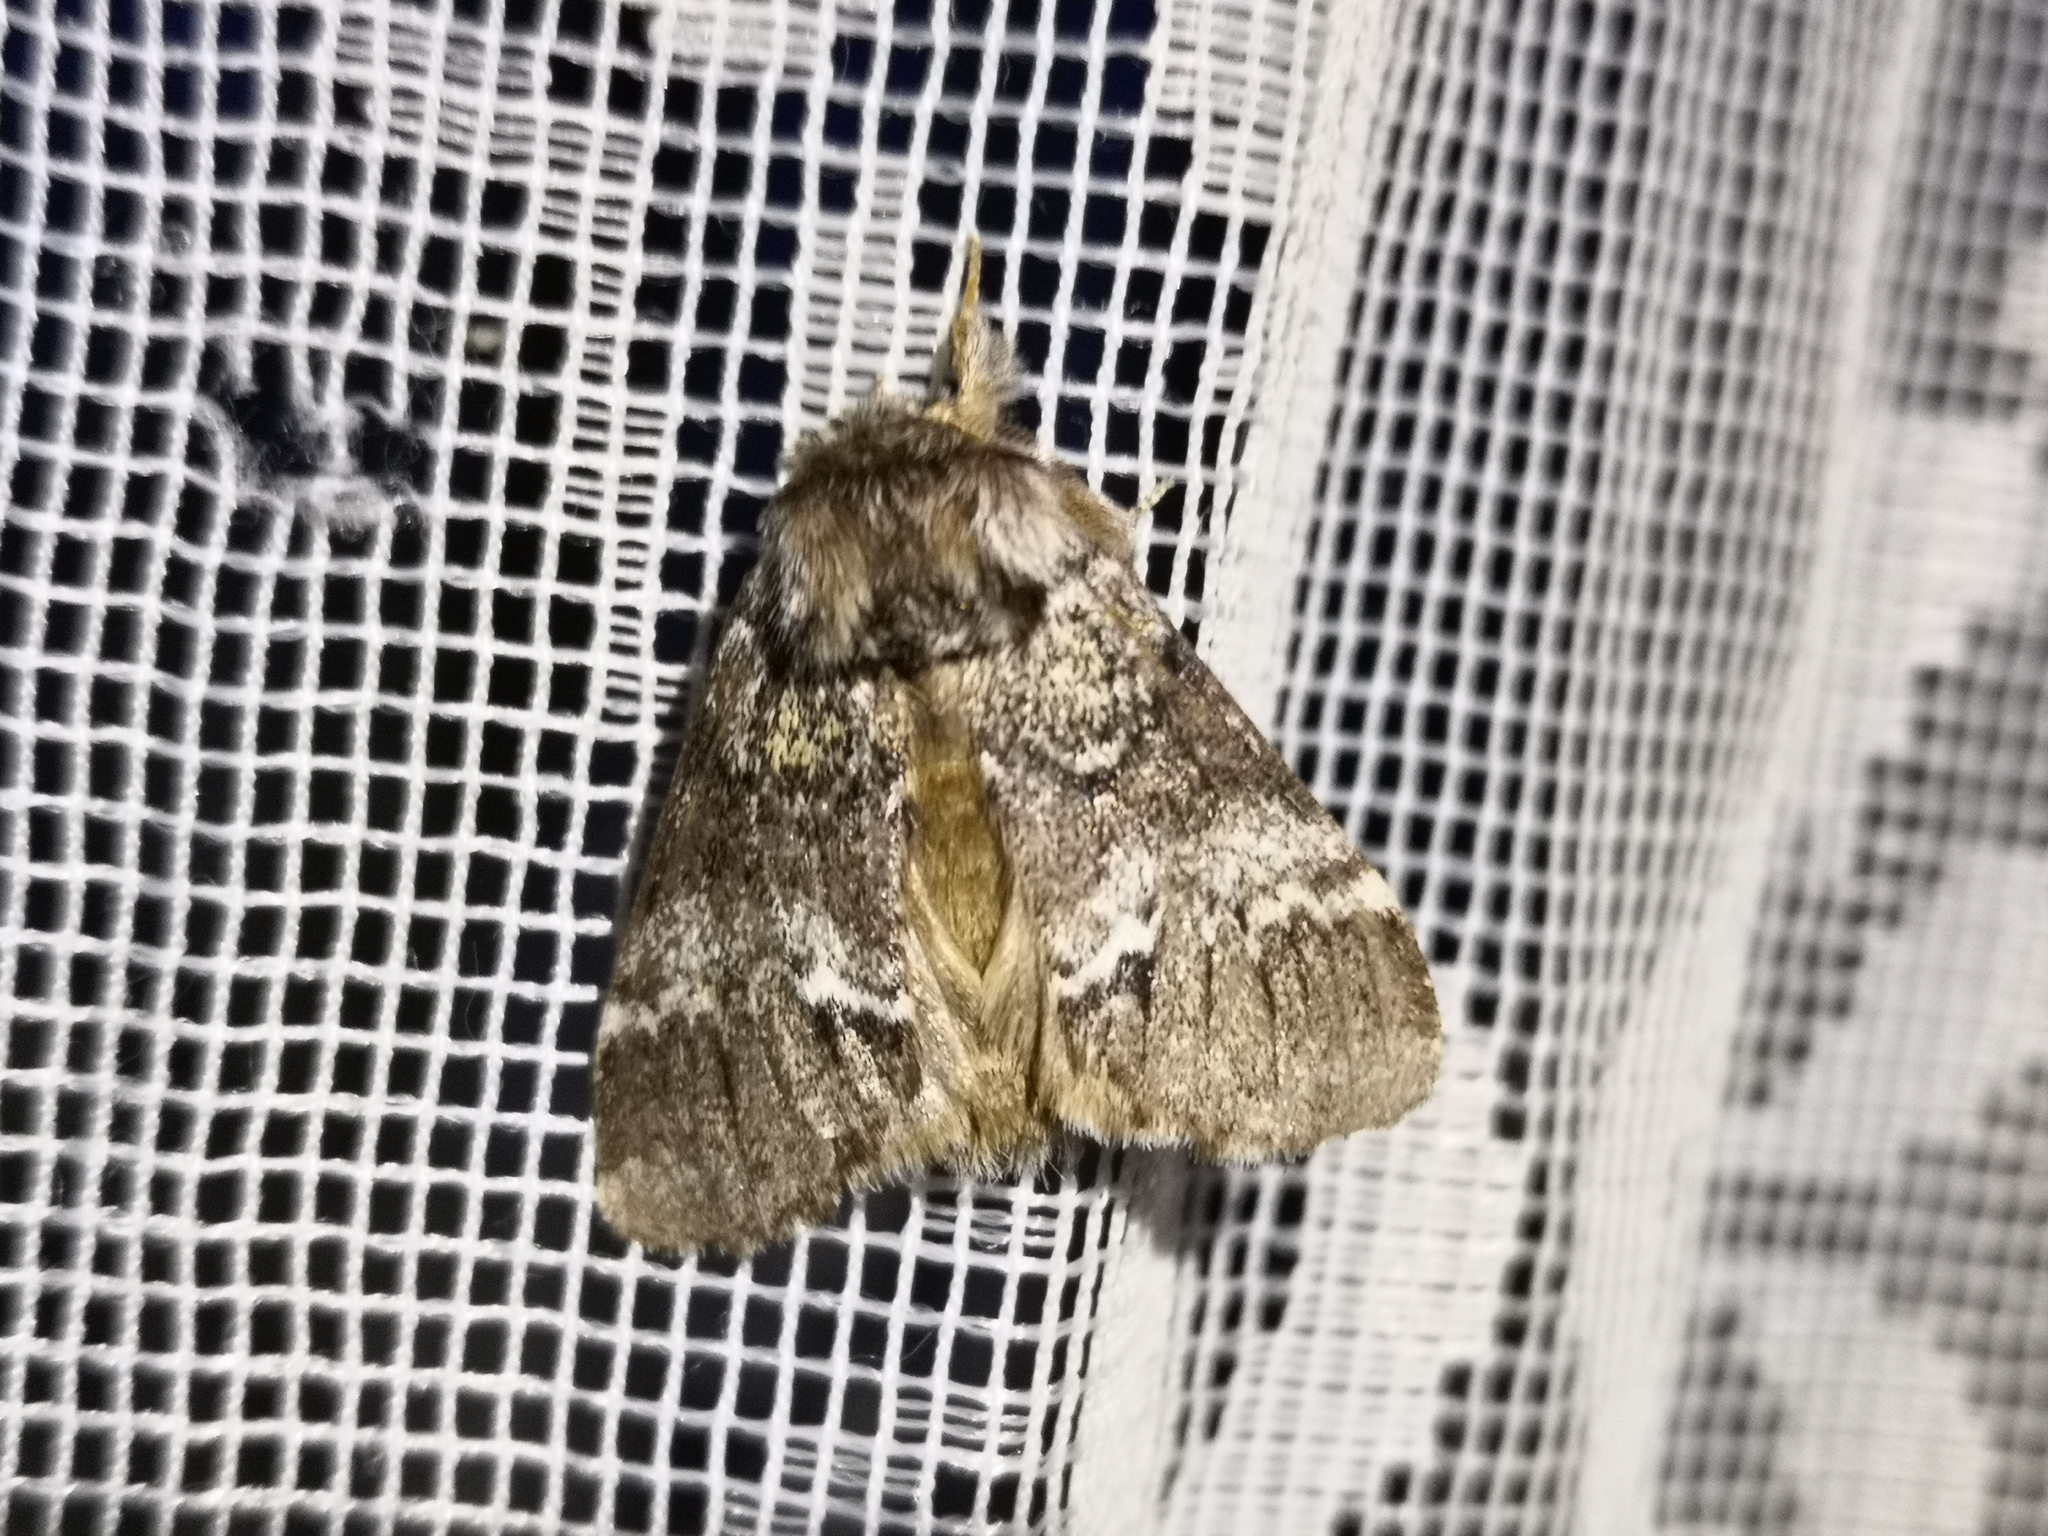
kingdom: Animalia
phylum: Arthropoda
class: Insecta
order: Lepidoptera
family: Notodontidae
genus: Drymonia
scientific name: Drymonia dodonaea
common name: Marbled brown
